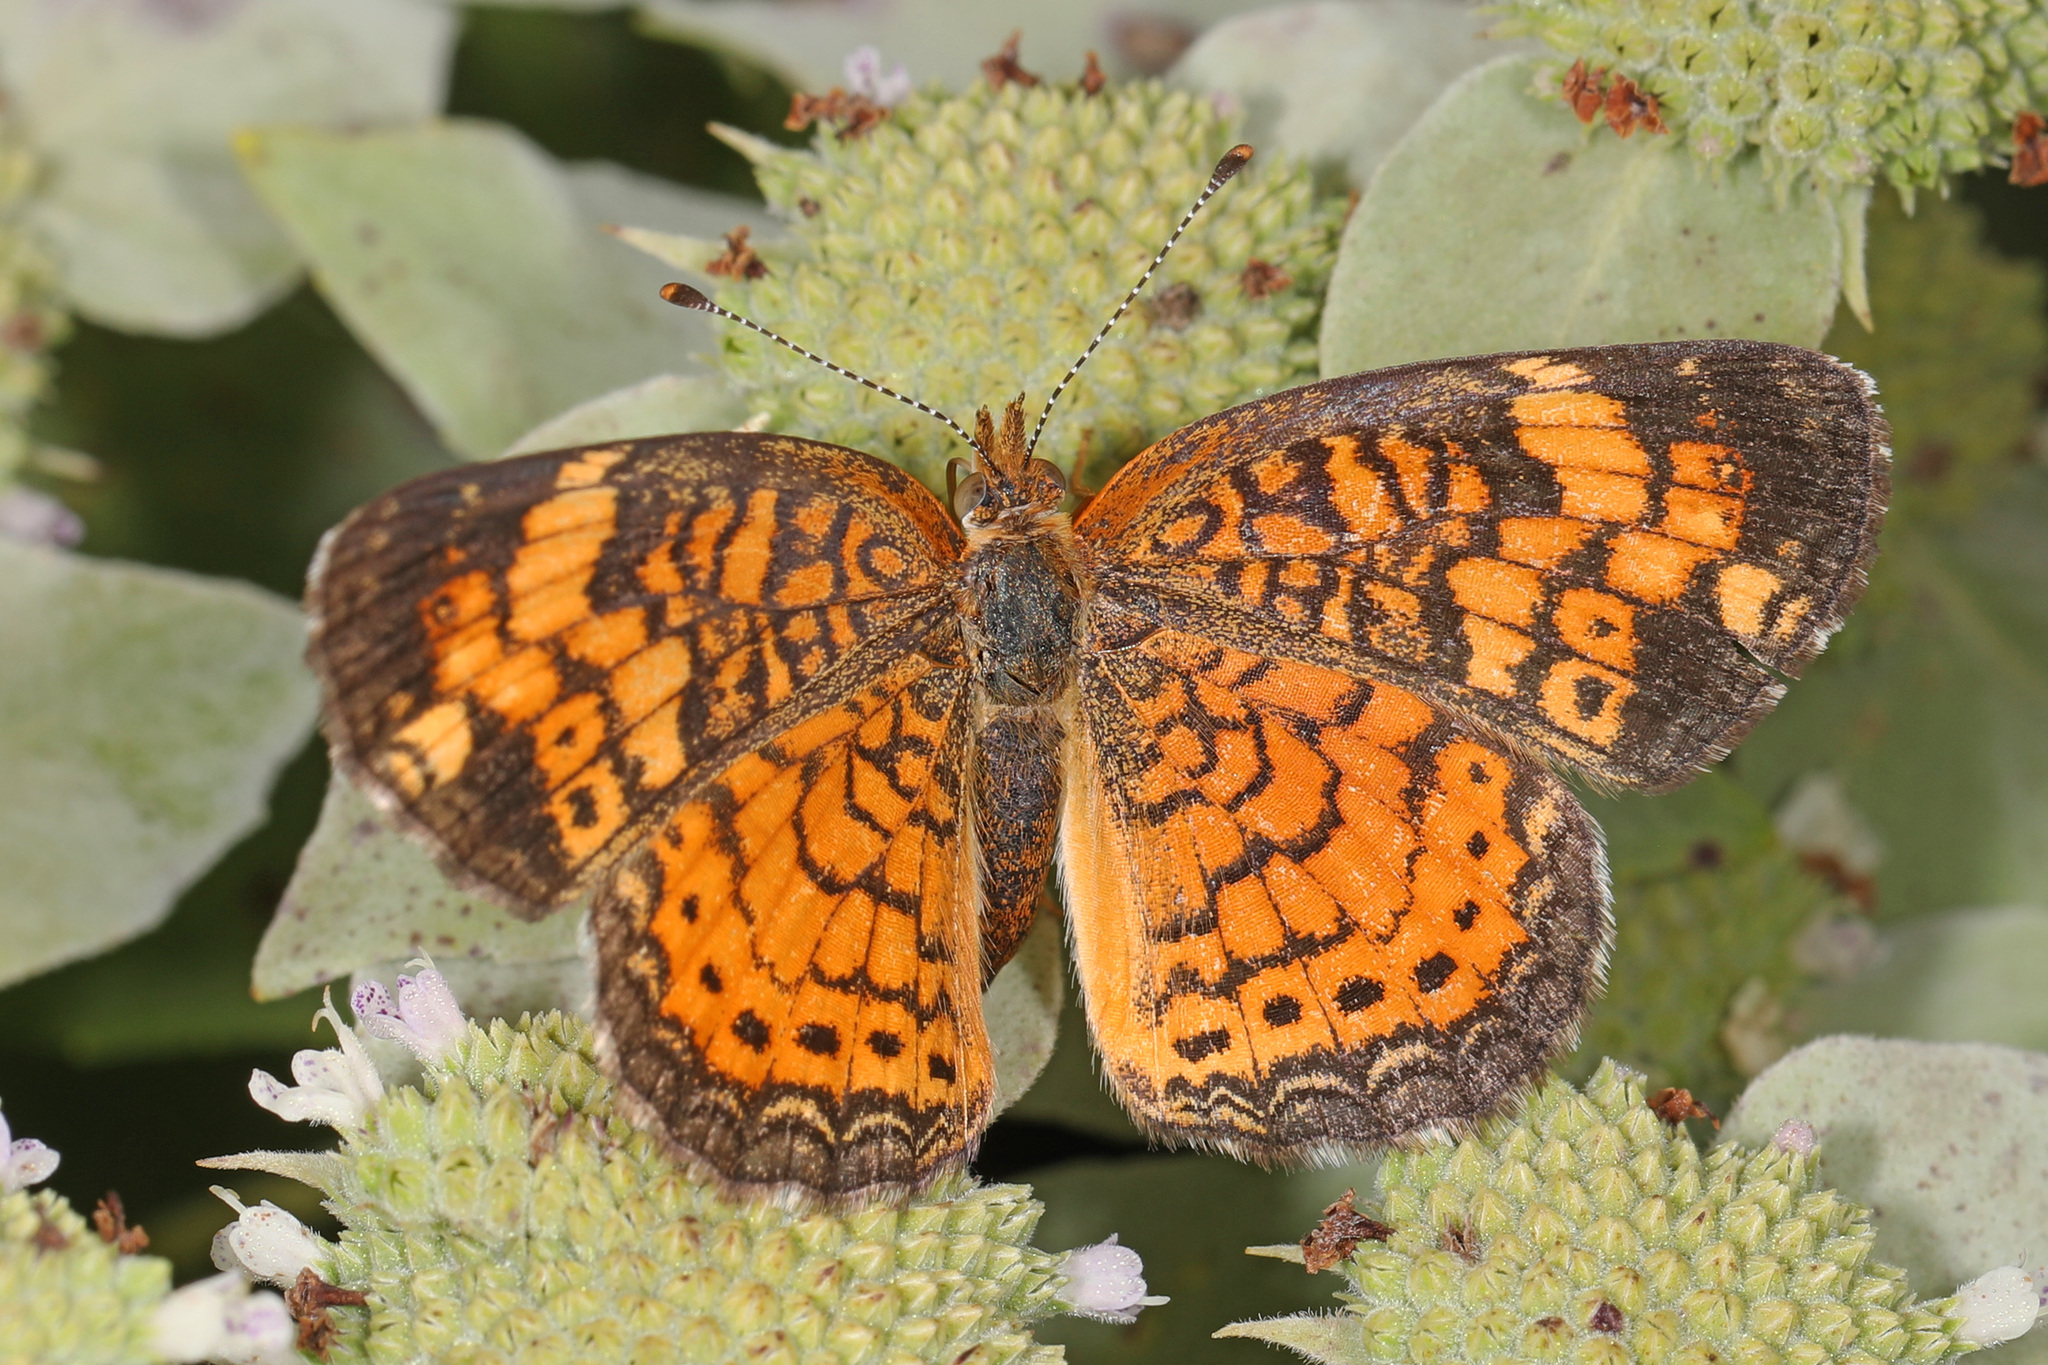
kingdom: Animalia
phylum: Arthropoda
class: Insecta
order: Lepidoptera
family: Nymphalidae
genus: Phyciodes
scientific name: Phyciodes tharos
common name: Pearl crescent
